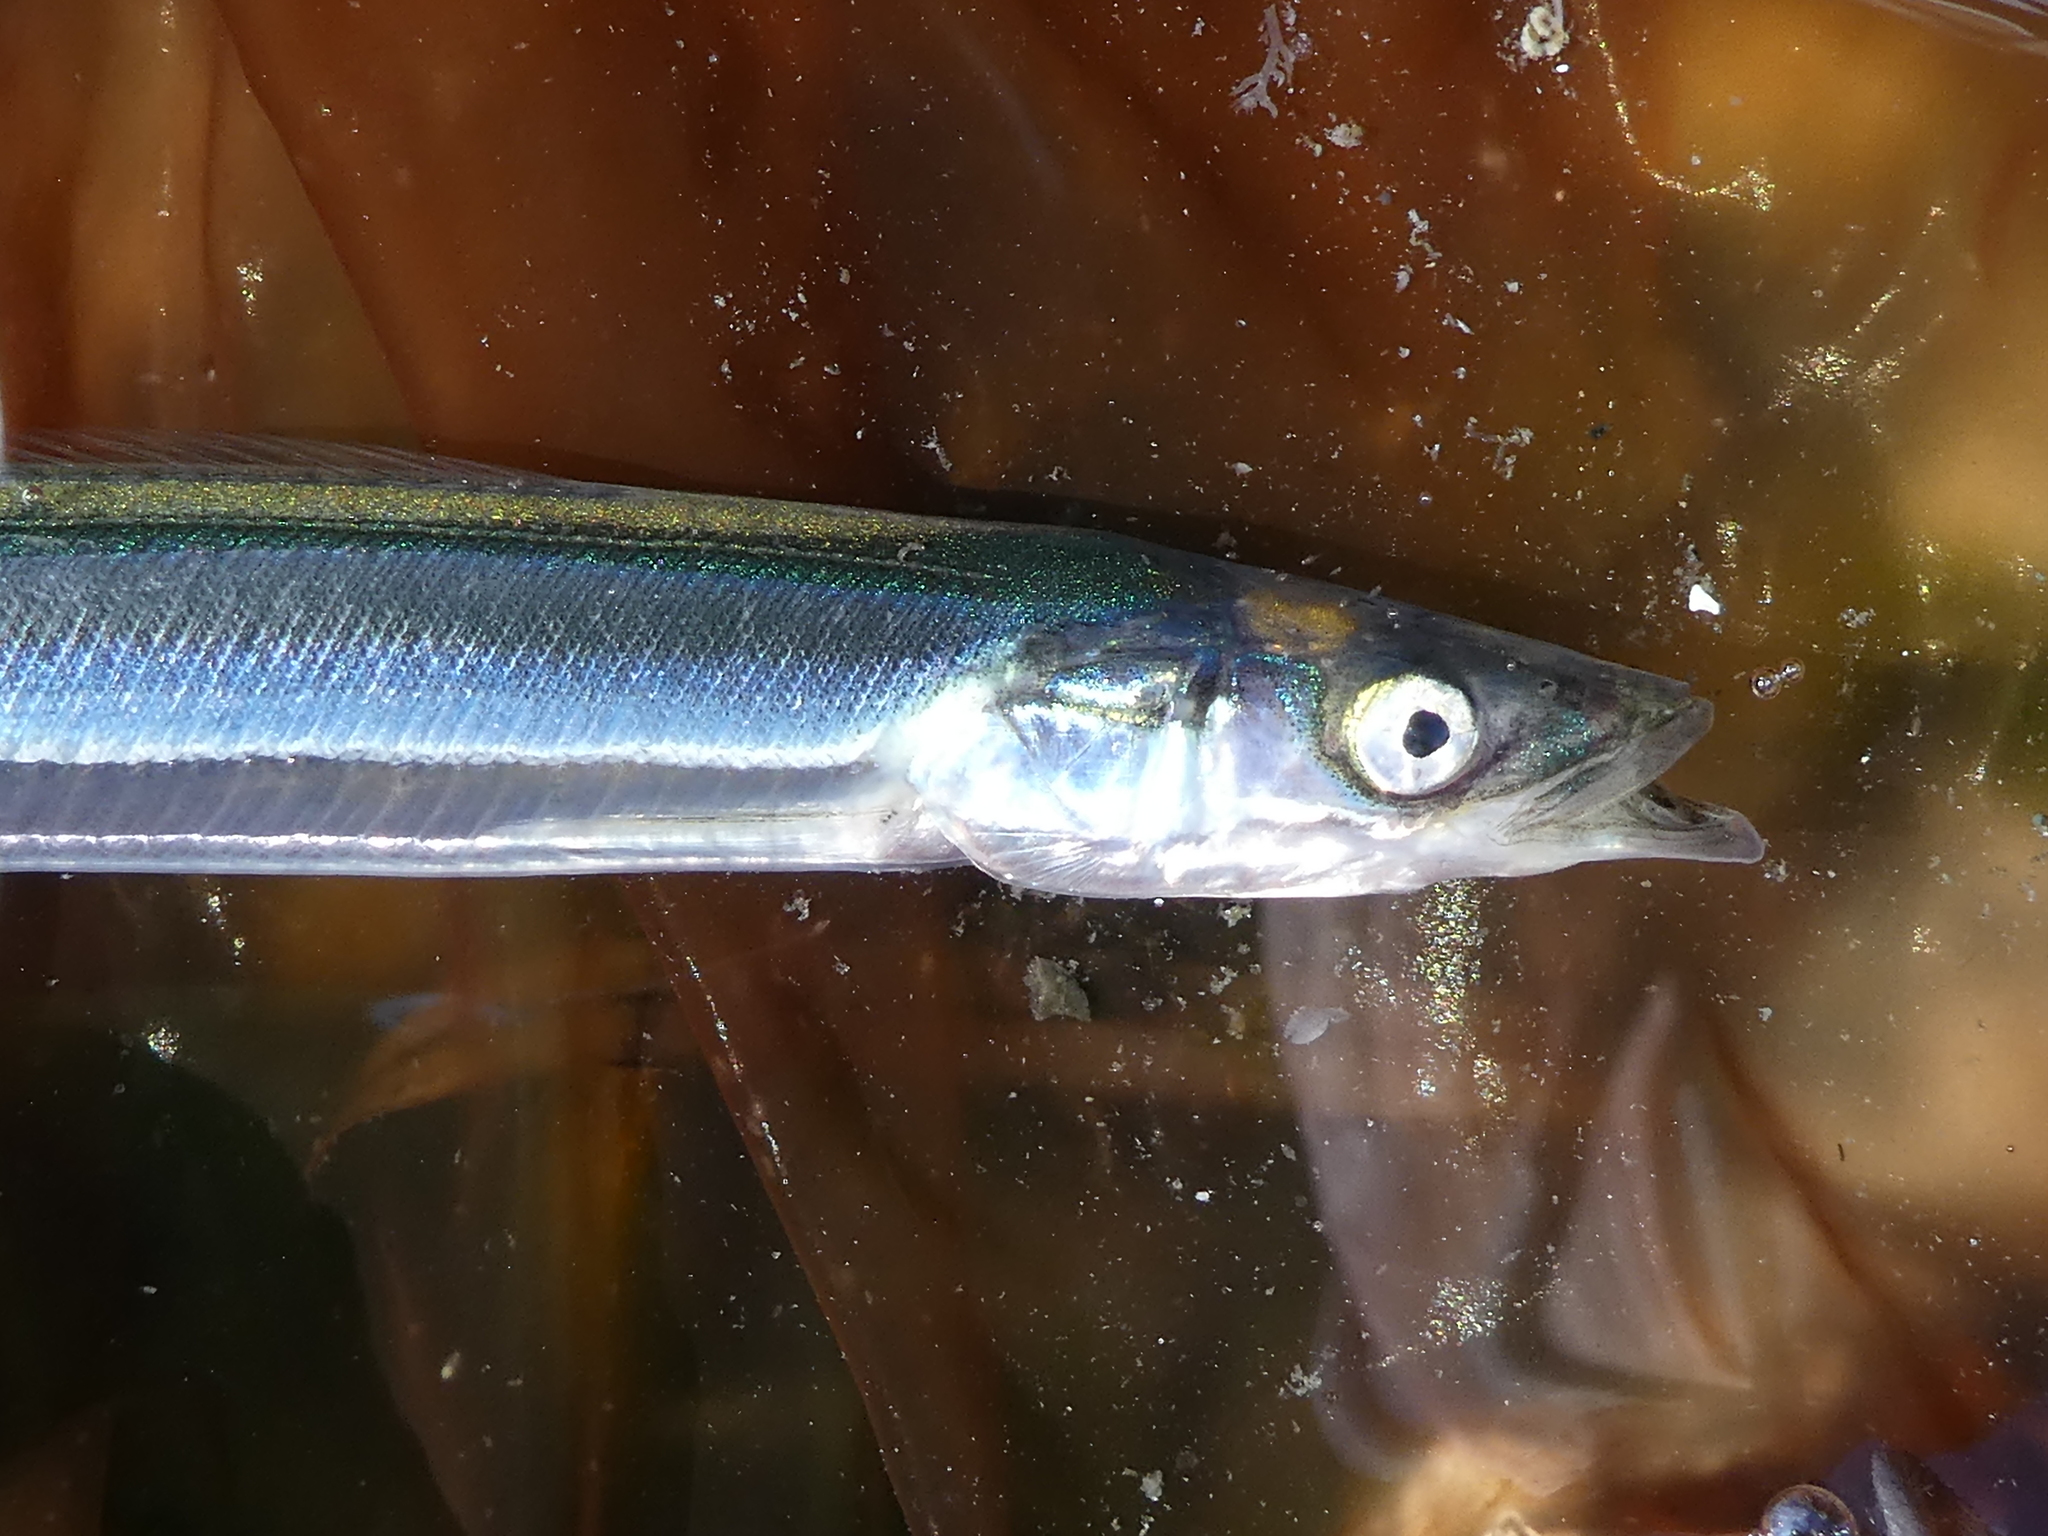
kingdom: Animalia
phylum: Chordata
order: Perciformes
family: Ammodytidae
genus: Ammodytes
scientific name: Ammodytes personatus
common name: Japanese sand lance
